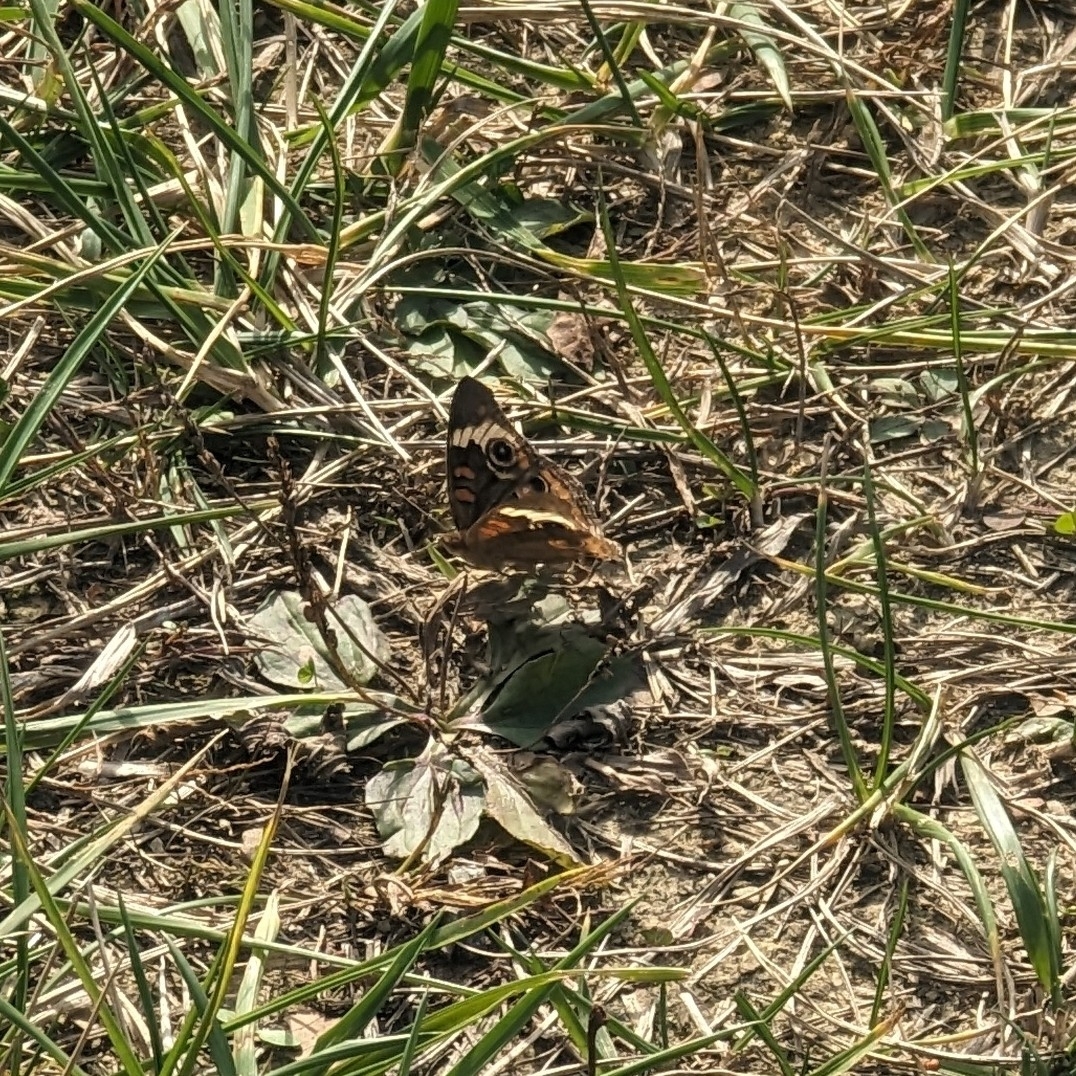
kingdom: Animalia
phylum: Arthropoda
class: Insecta
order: Lepidoptera
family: Nymphalidae
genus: Junonia
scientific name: Junonia coenia
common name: Common buckeye
